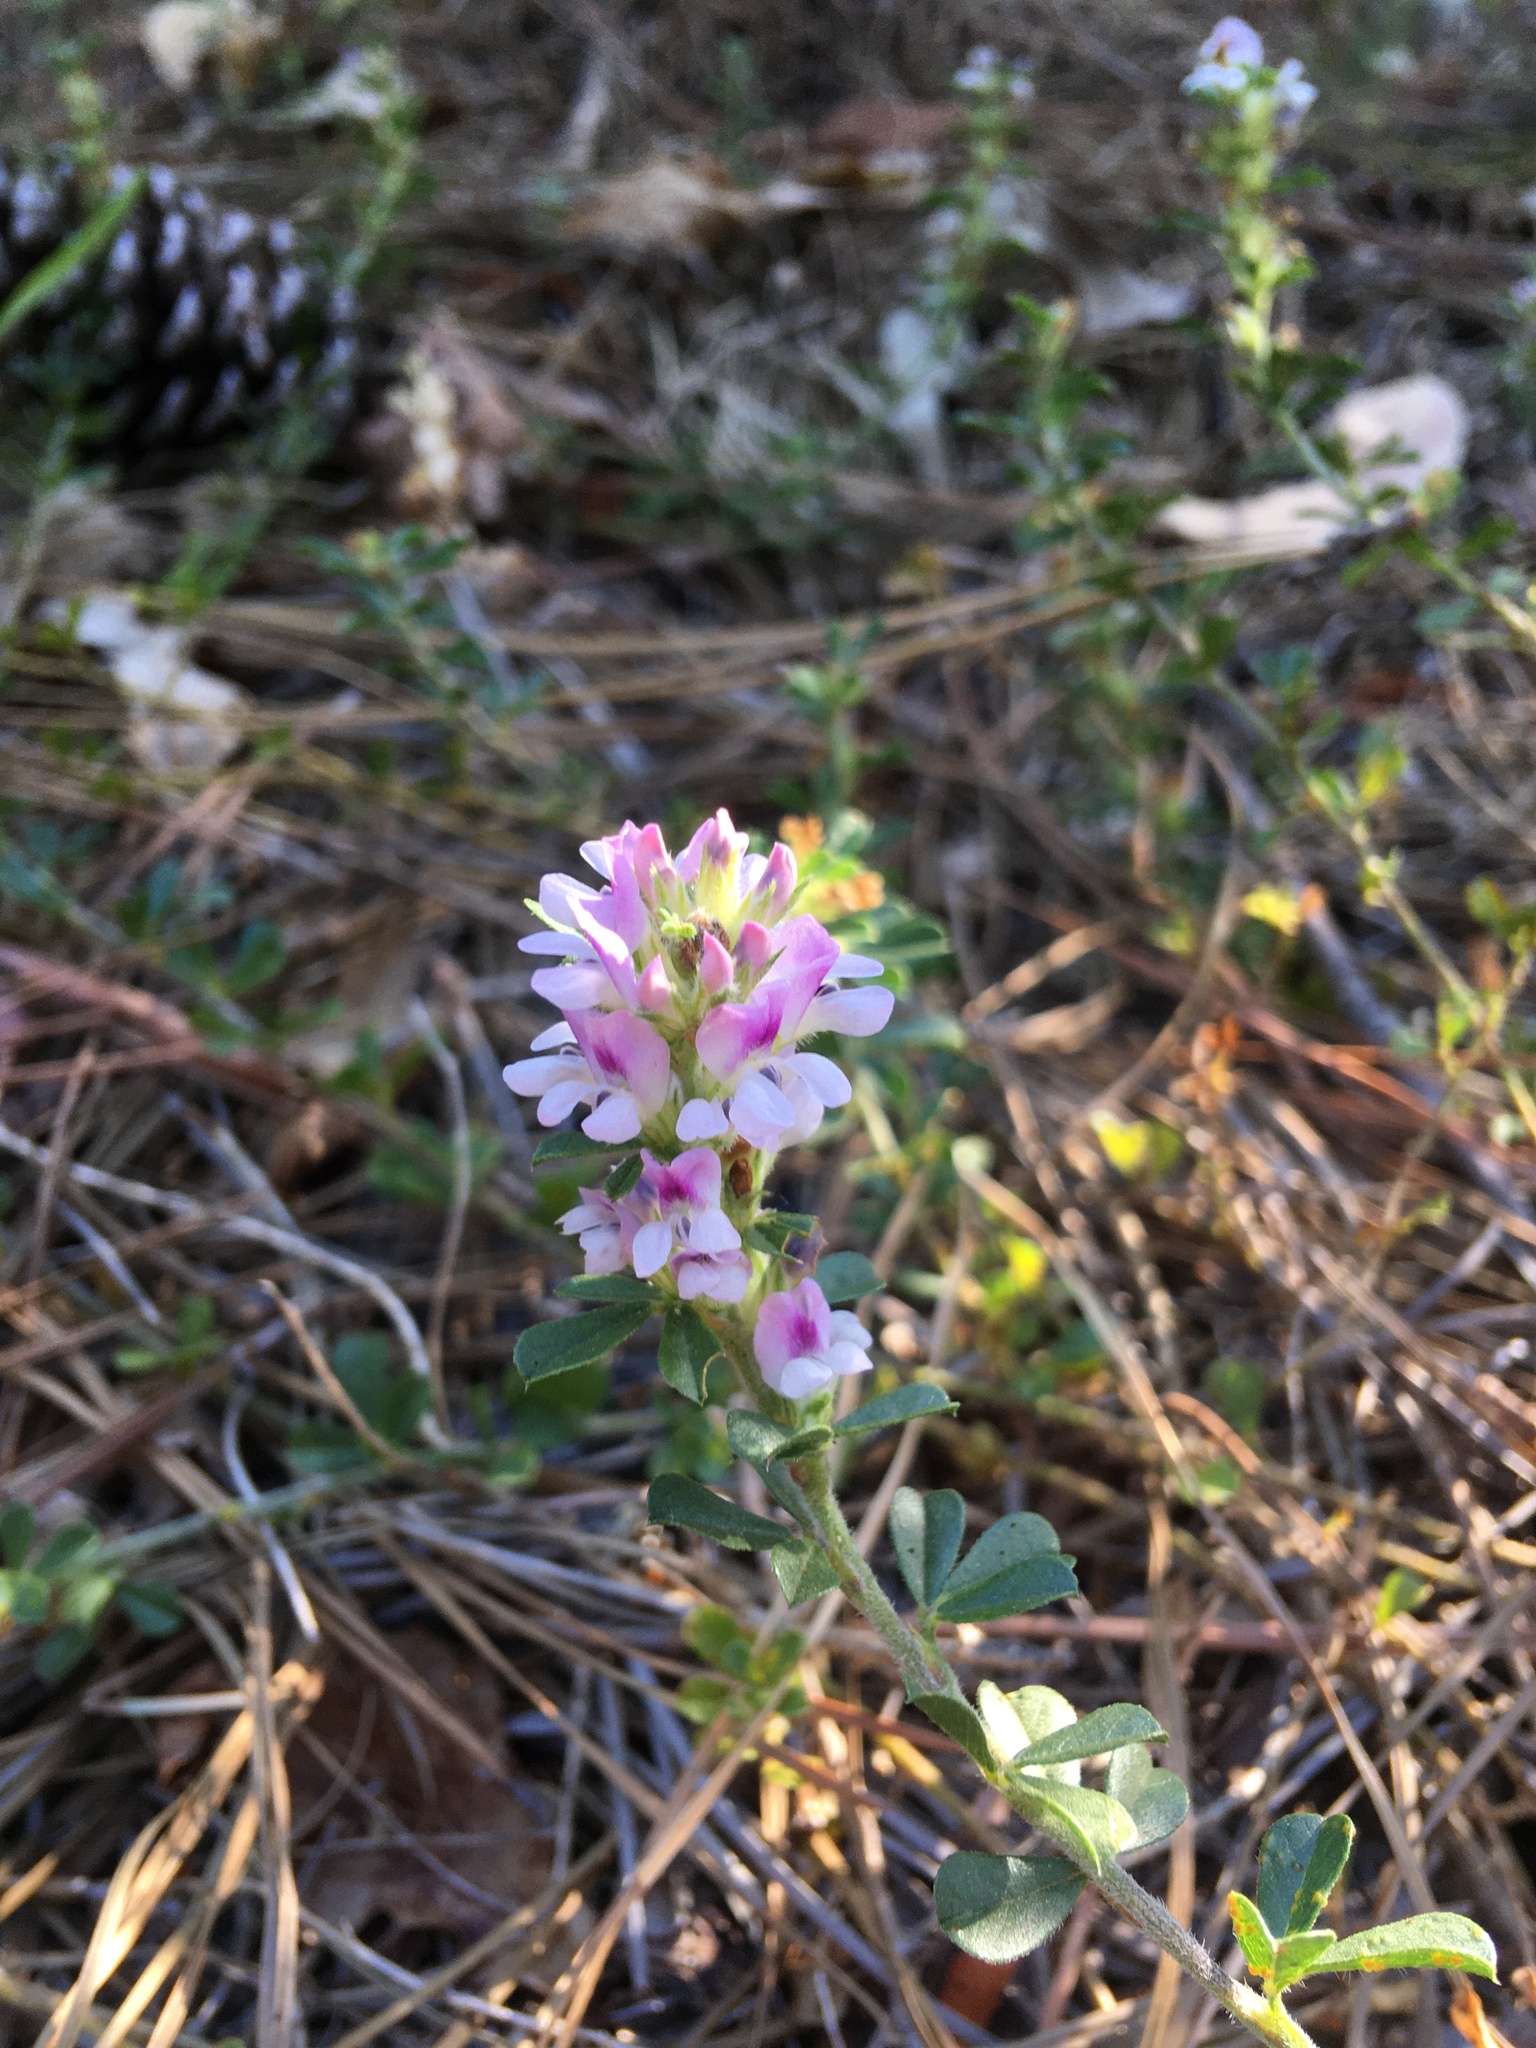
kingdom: Plantae
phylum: Tracheophyta
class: Magnoliopsida
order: Fabales
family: Fabaceae
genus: Psoralea
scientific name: Psoralea
